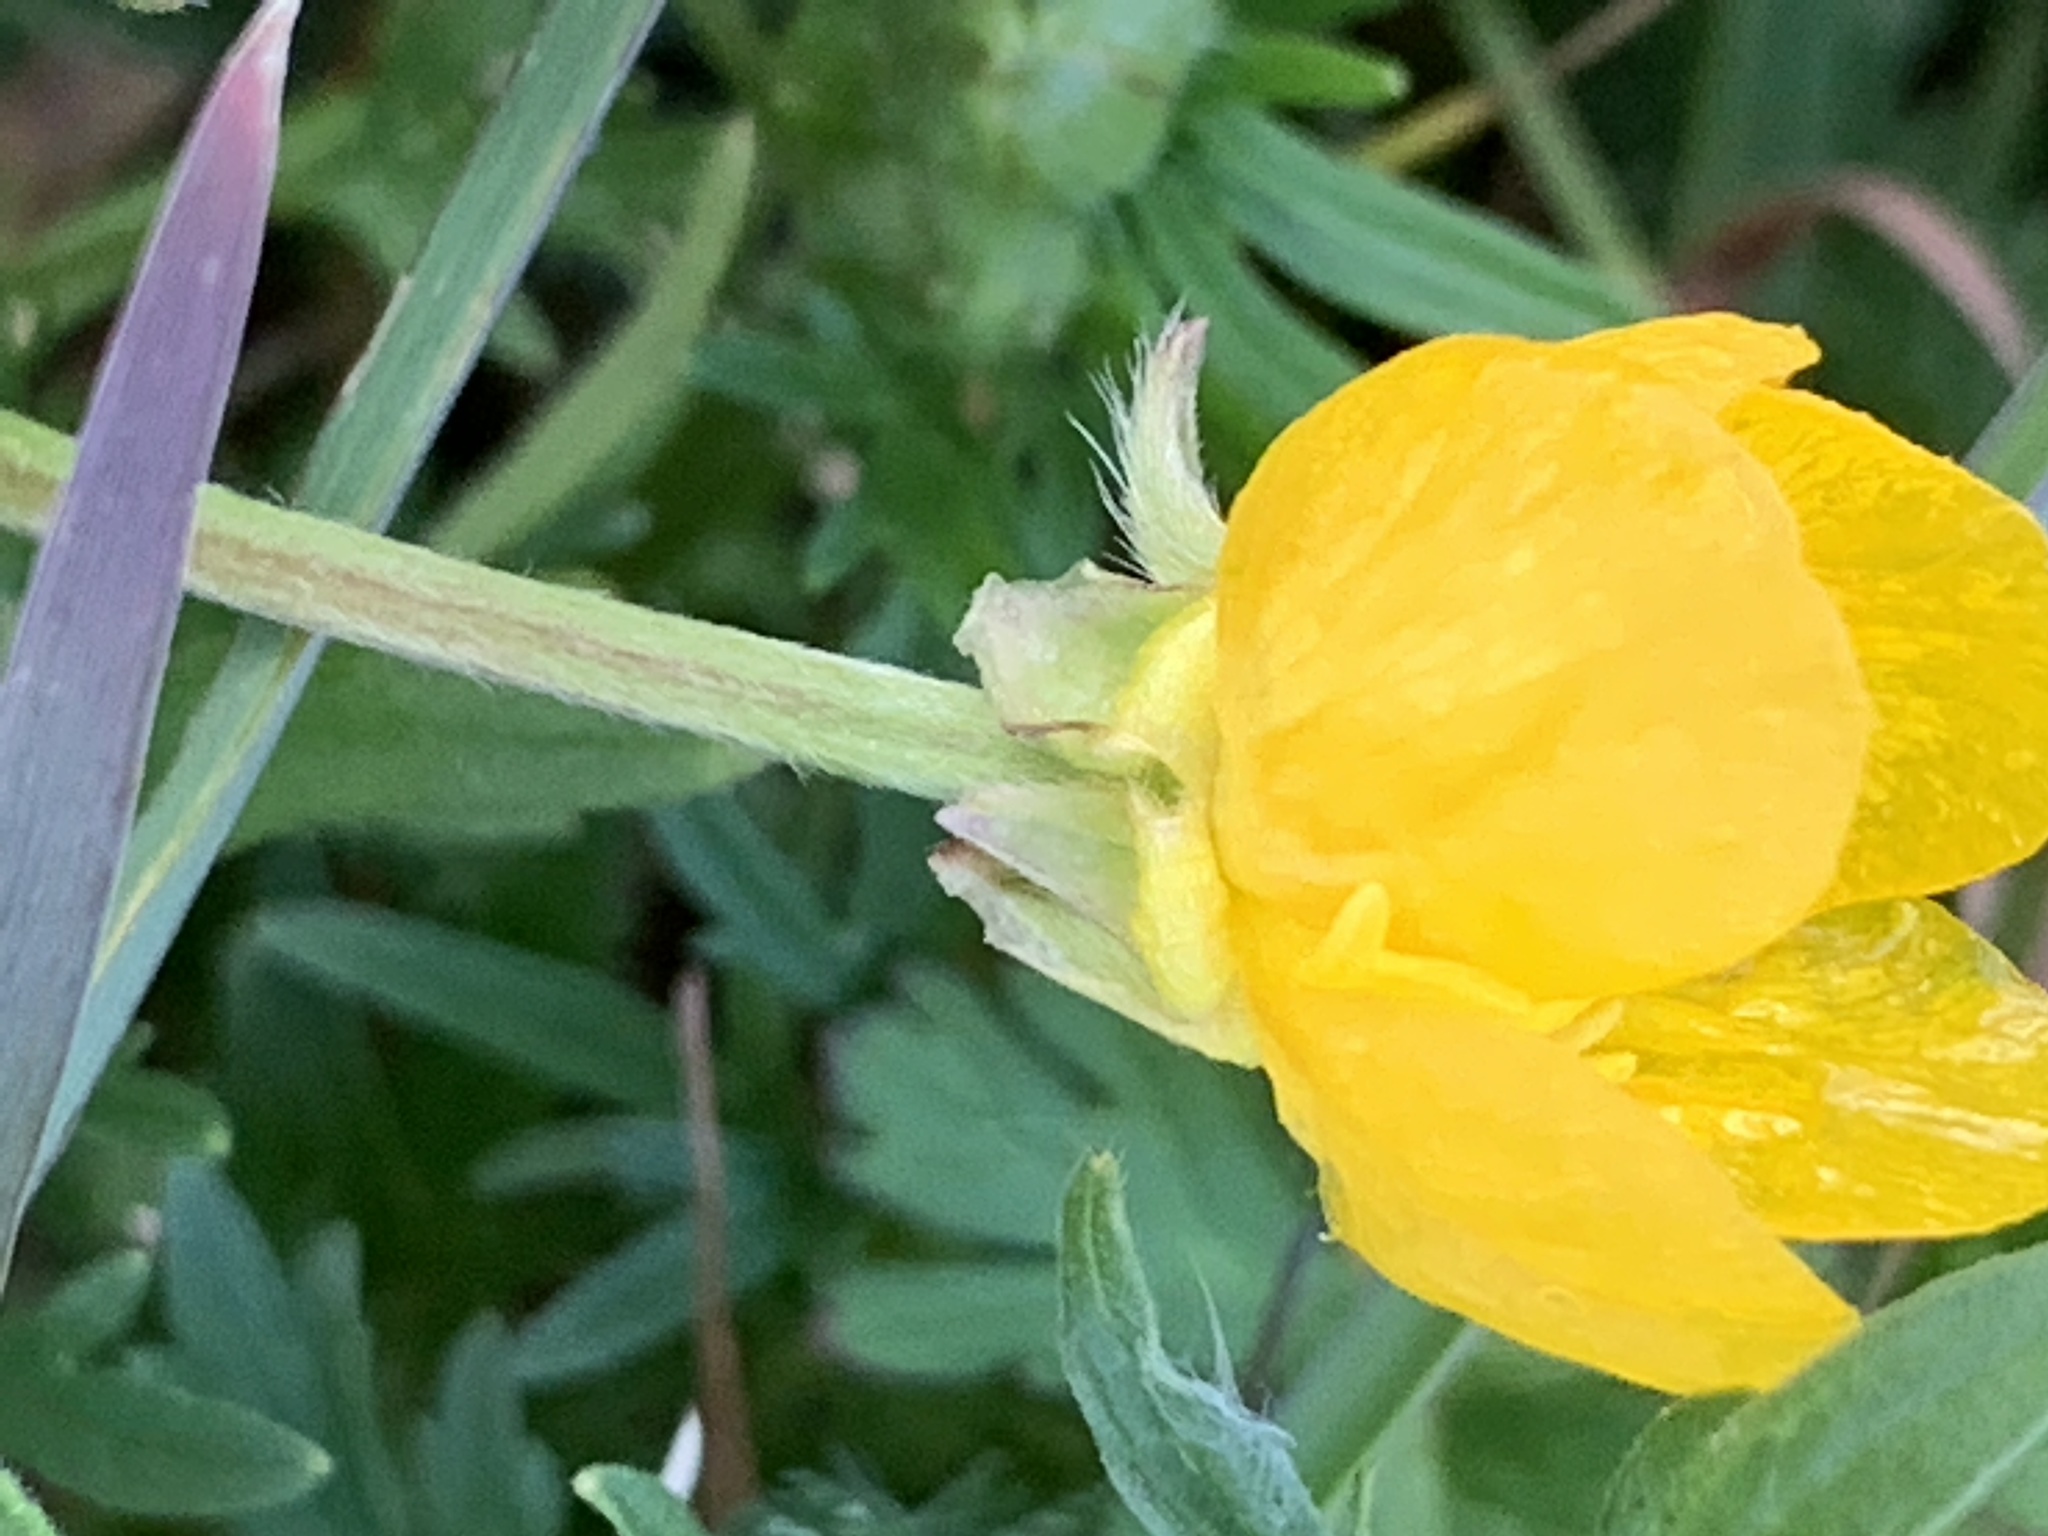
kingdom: Plantae
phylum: Tracheophyta
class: Magnoliopsida
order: Ranunculales
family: Ranunculaceae
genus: Ranunculus
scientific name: Ranunculus bulbosus
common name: Bulbous buttercup
